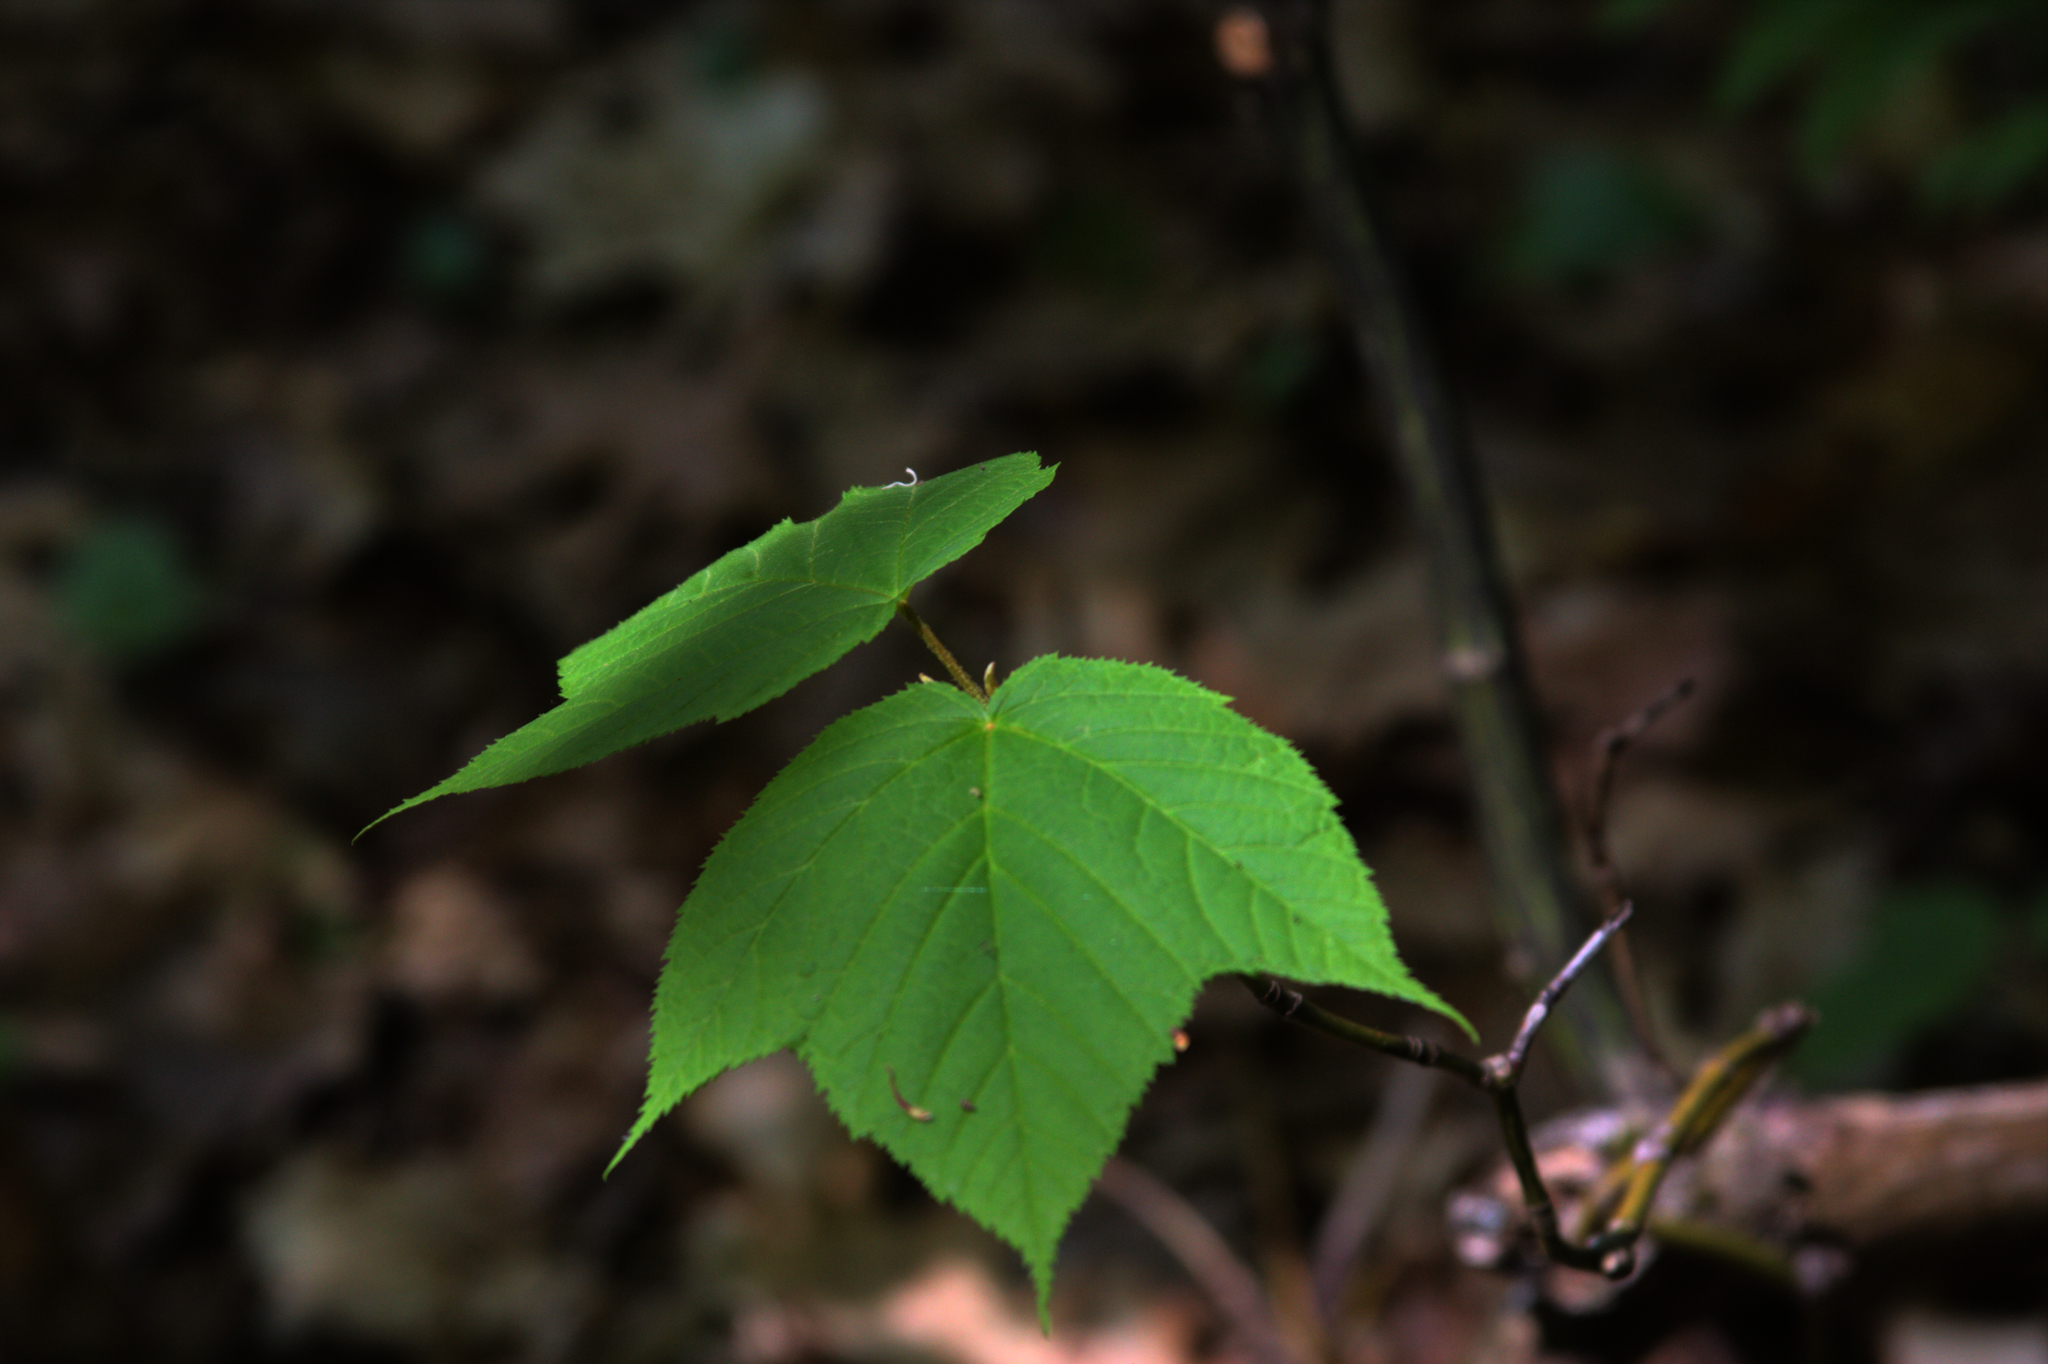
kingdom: Plantae
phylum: Tracheophyta
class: Magnoliopsida
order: Sapindales
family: Sapindaceae
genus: Acer
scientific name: Acer pensylvanicum
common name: Moosewood
